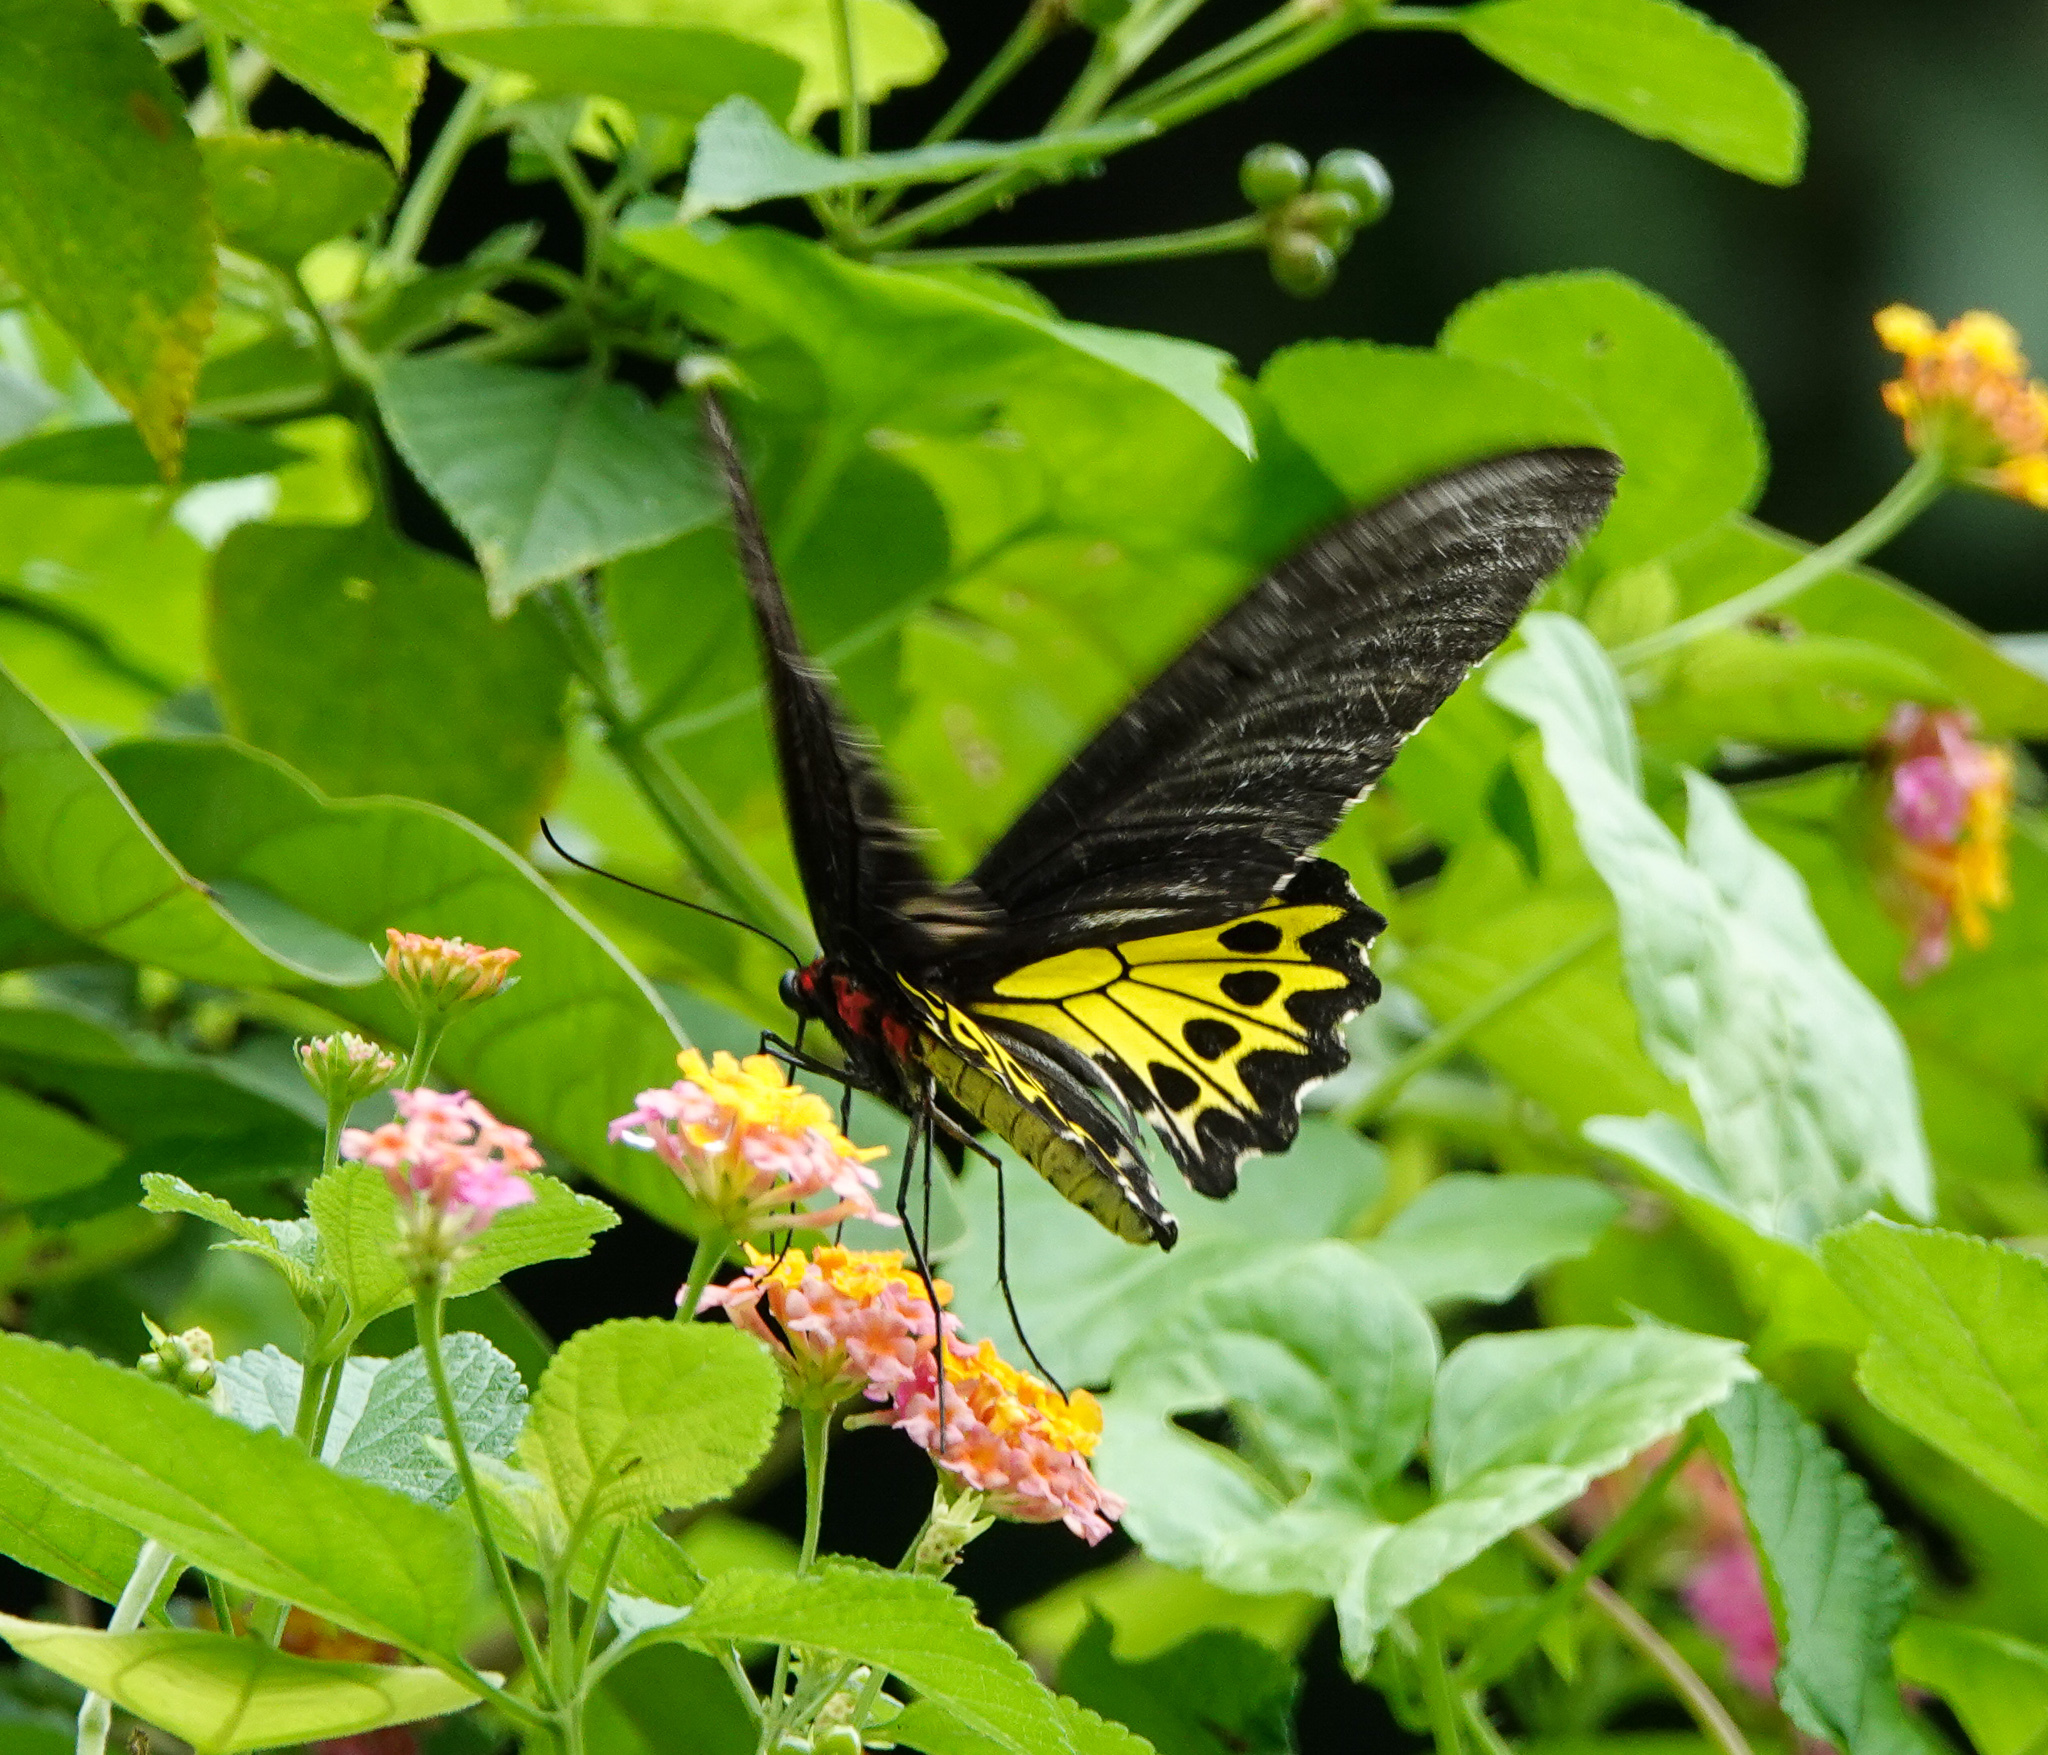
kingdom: Animalia
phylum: Arthropoda
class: Insecta
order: Lepidoptera
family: Papilionidae
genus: Troides
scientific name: Troides helena
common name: Common birdwing
